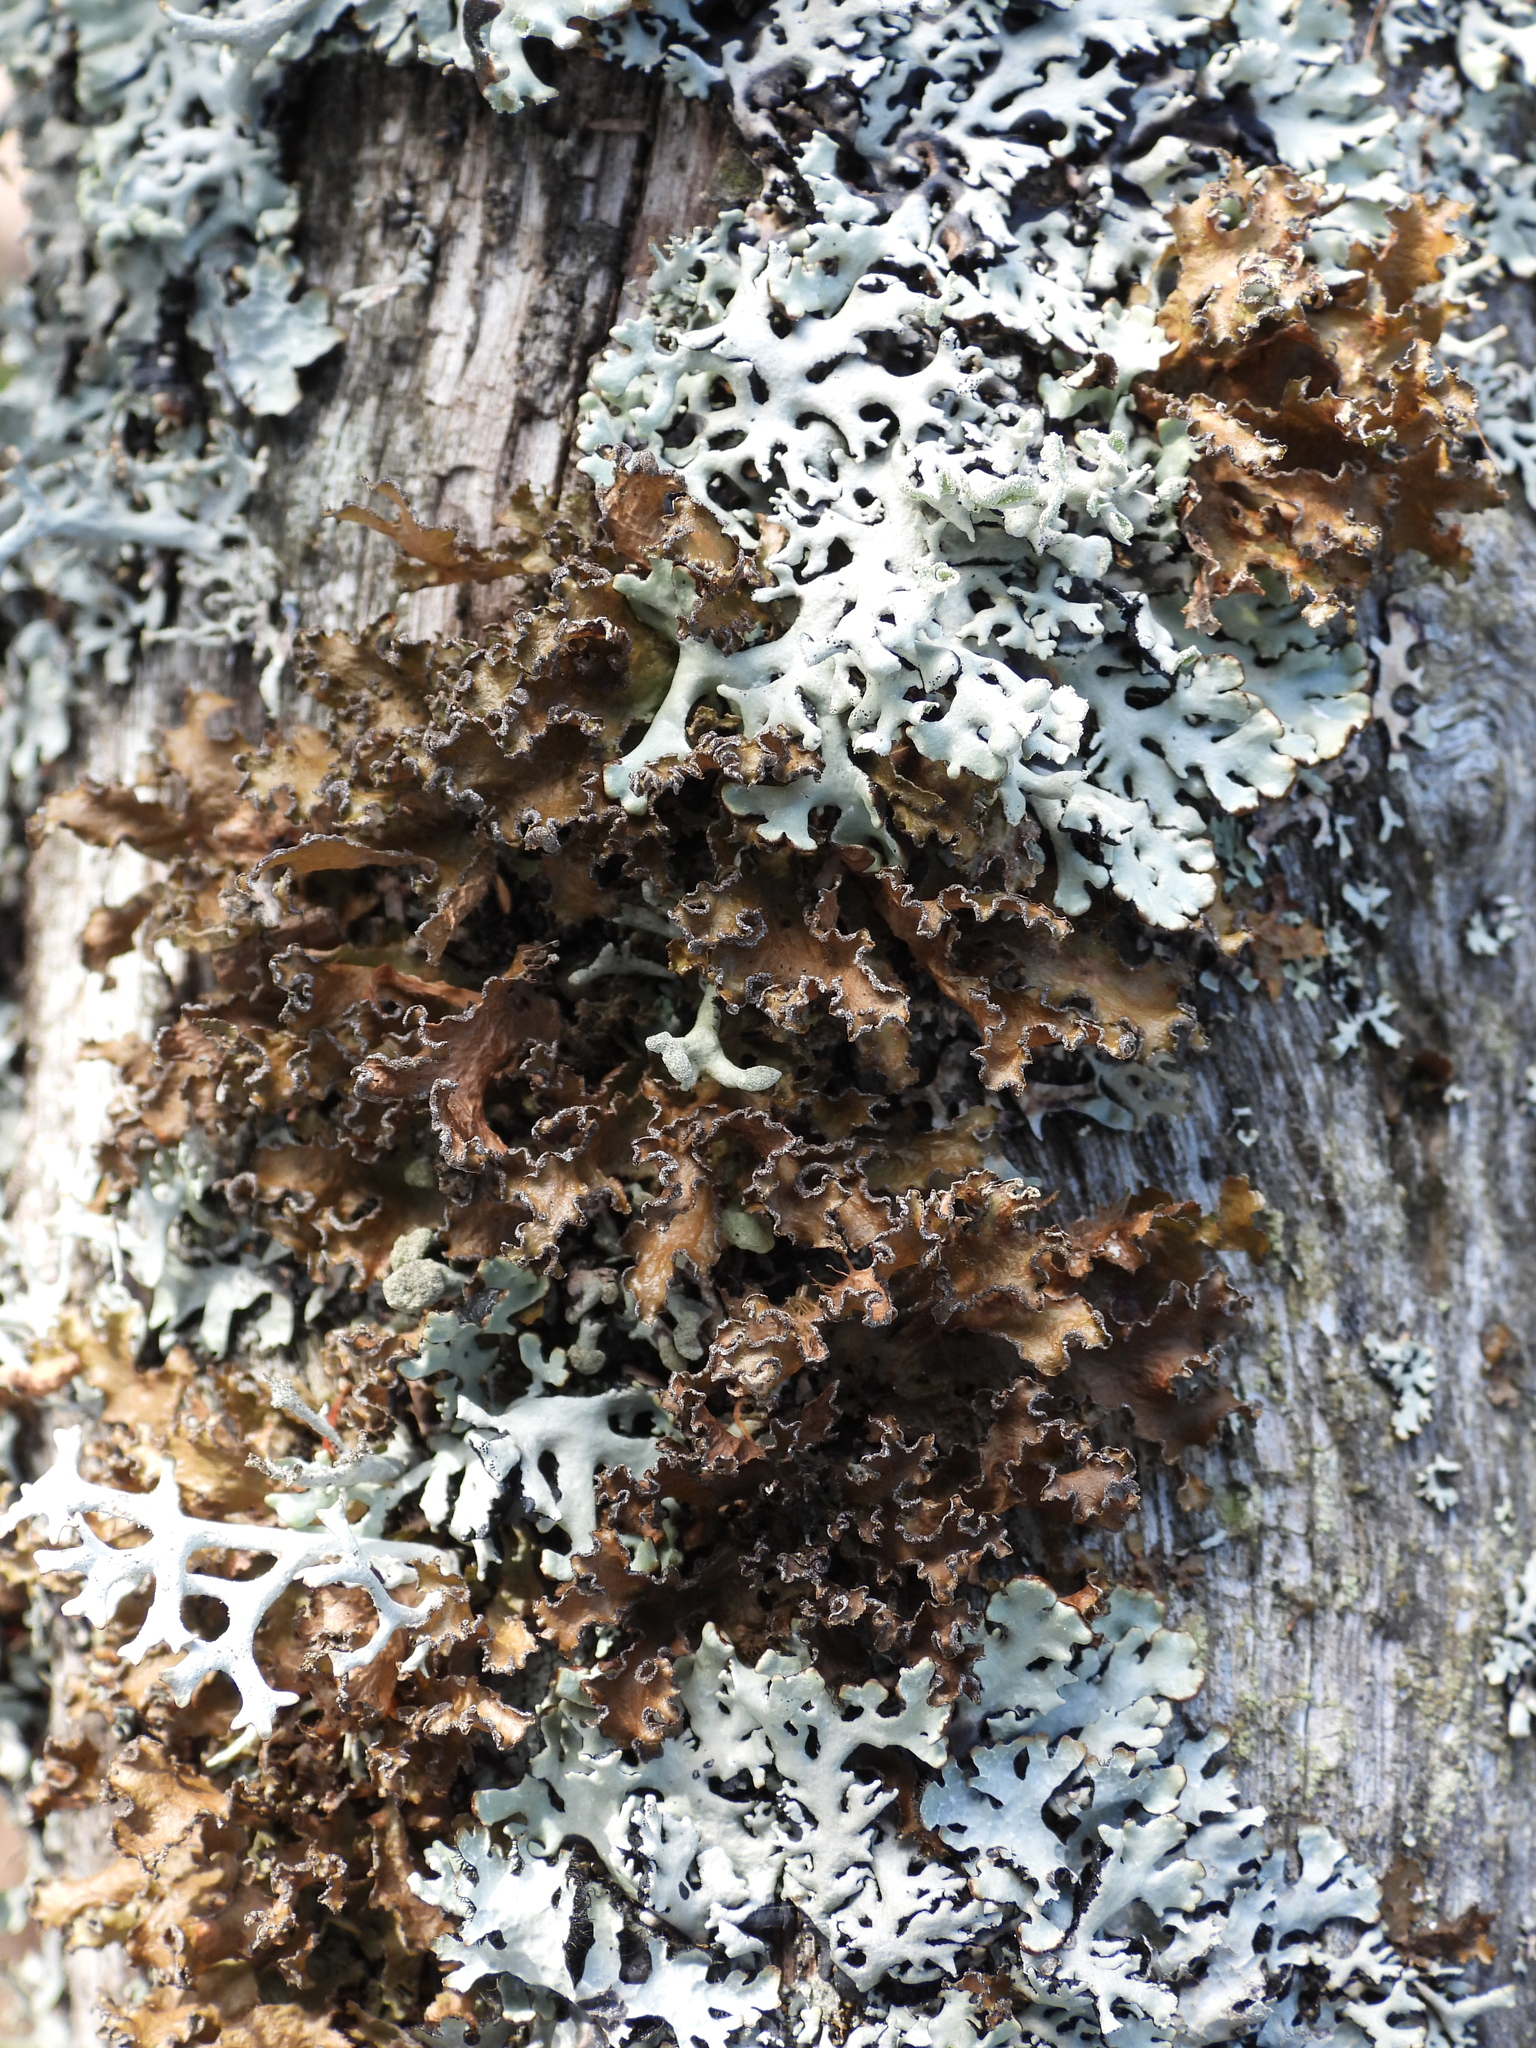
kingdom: Fungi
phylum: Ascomycota
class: Lecanoromycetes
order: Lecanorales
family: Parmeliaceae
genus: Nephromopsis
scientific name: Nephromopsis chlorophylla
